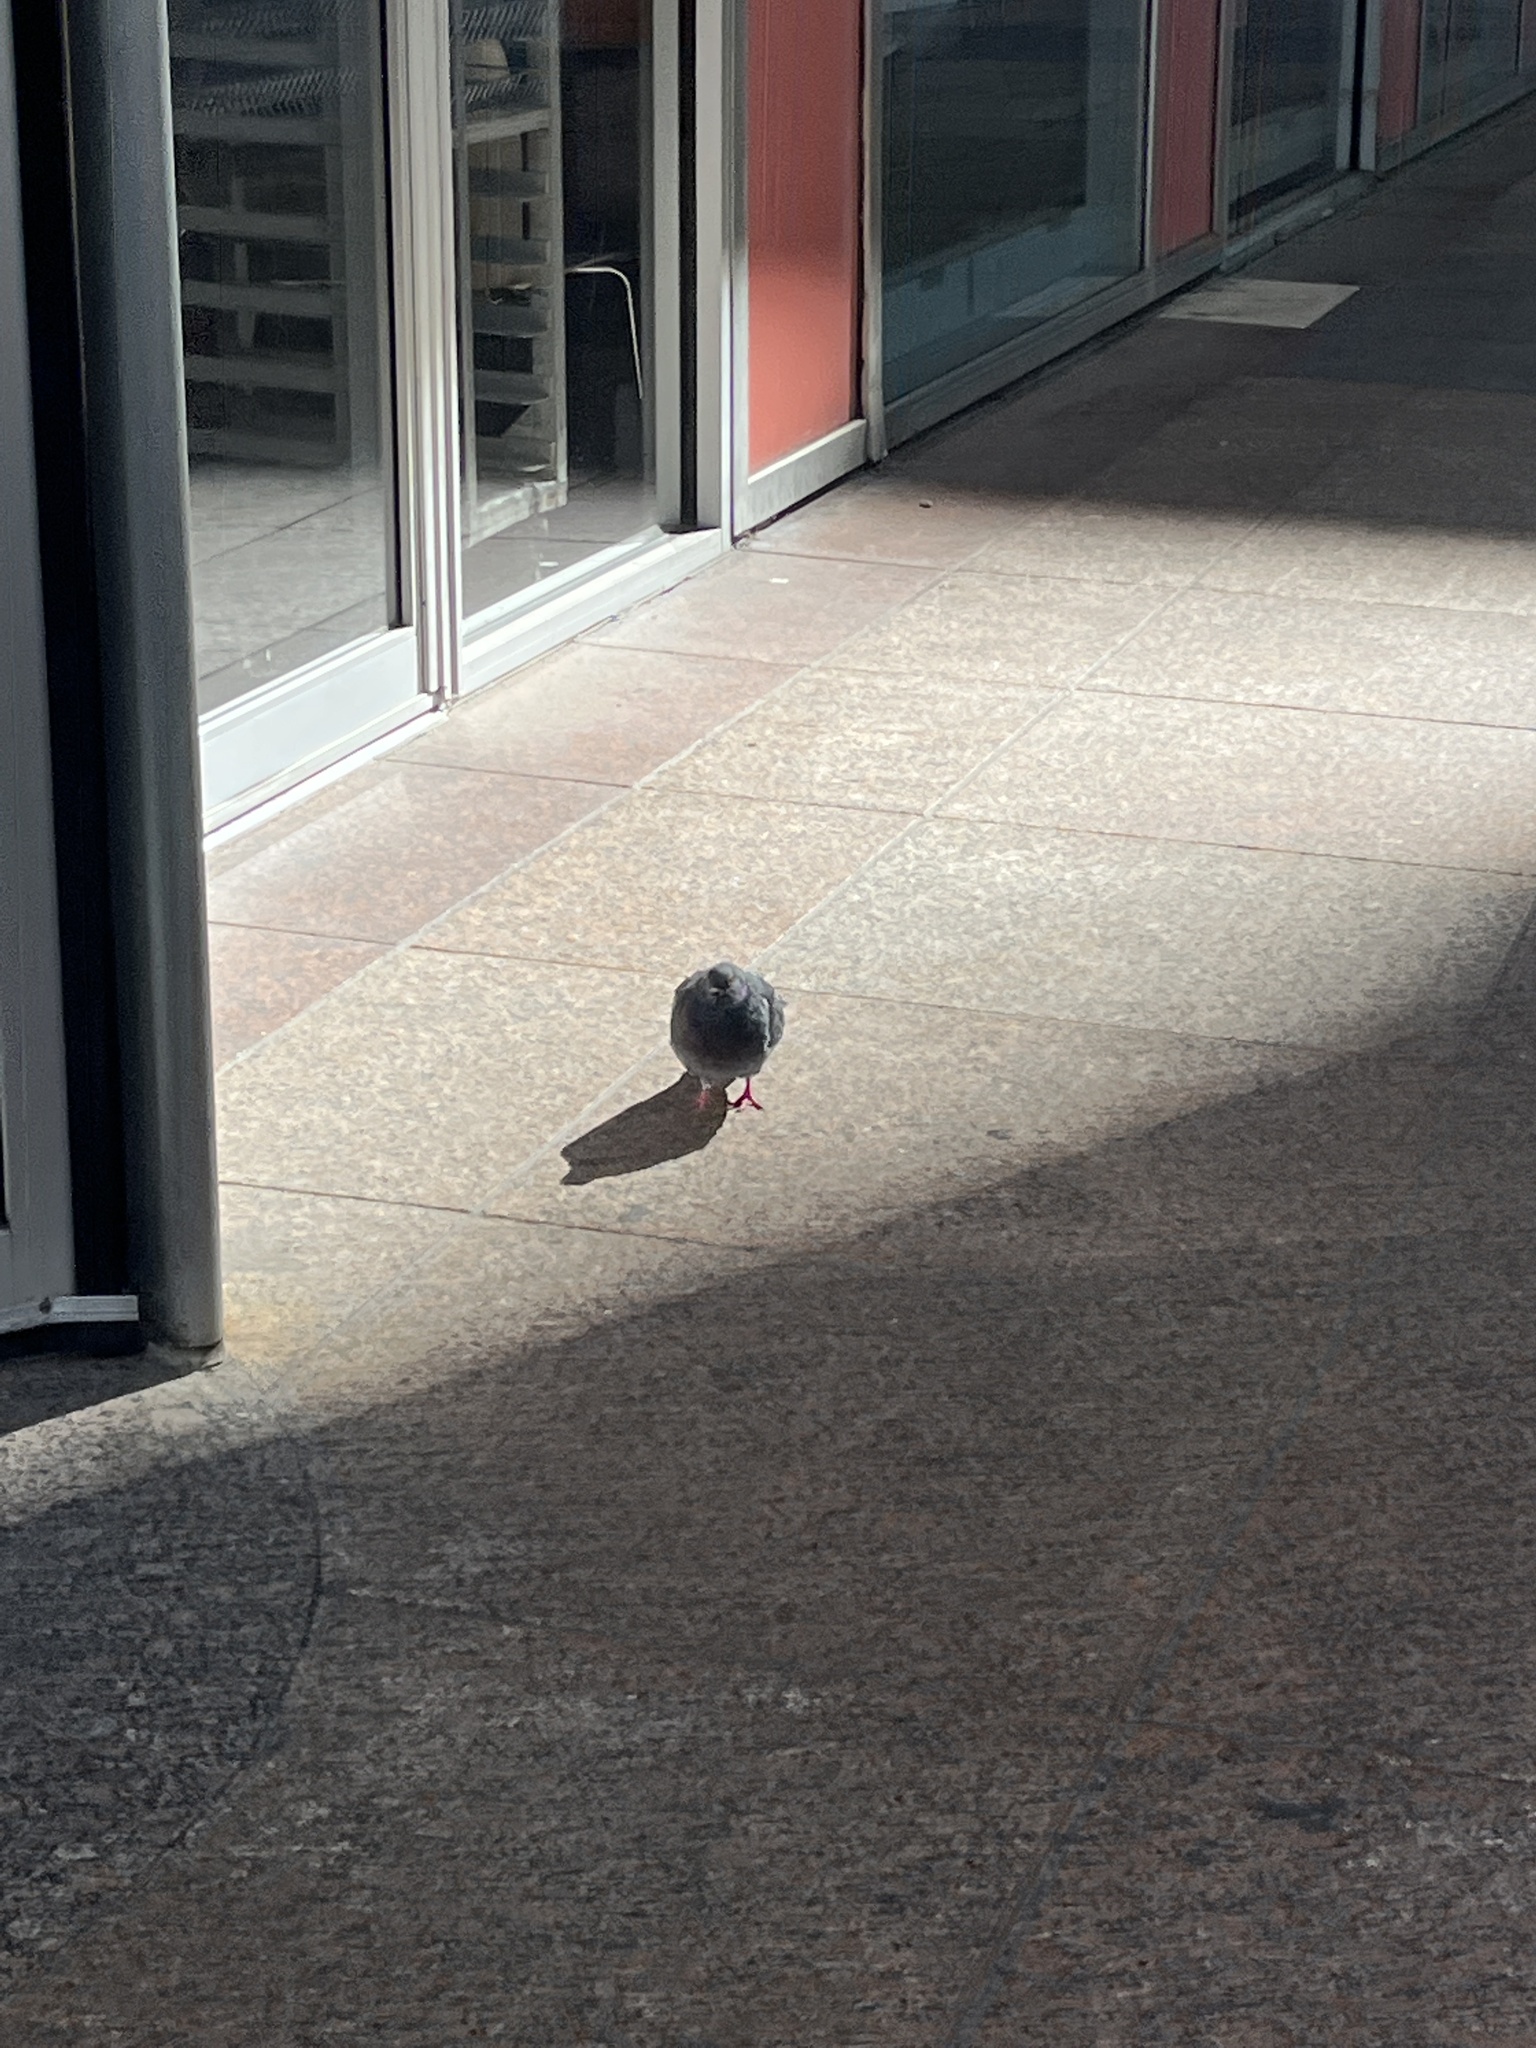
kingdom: Animalia
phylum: Chordata
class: Aves
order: Columbiformes
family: Columbidae
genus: Columba
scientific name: Columba livia
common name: Rock pigeon
